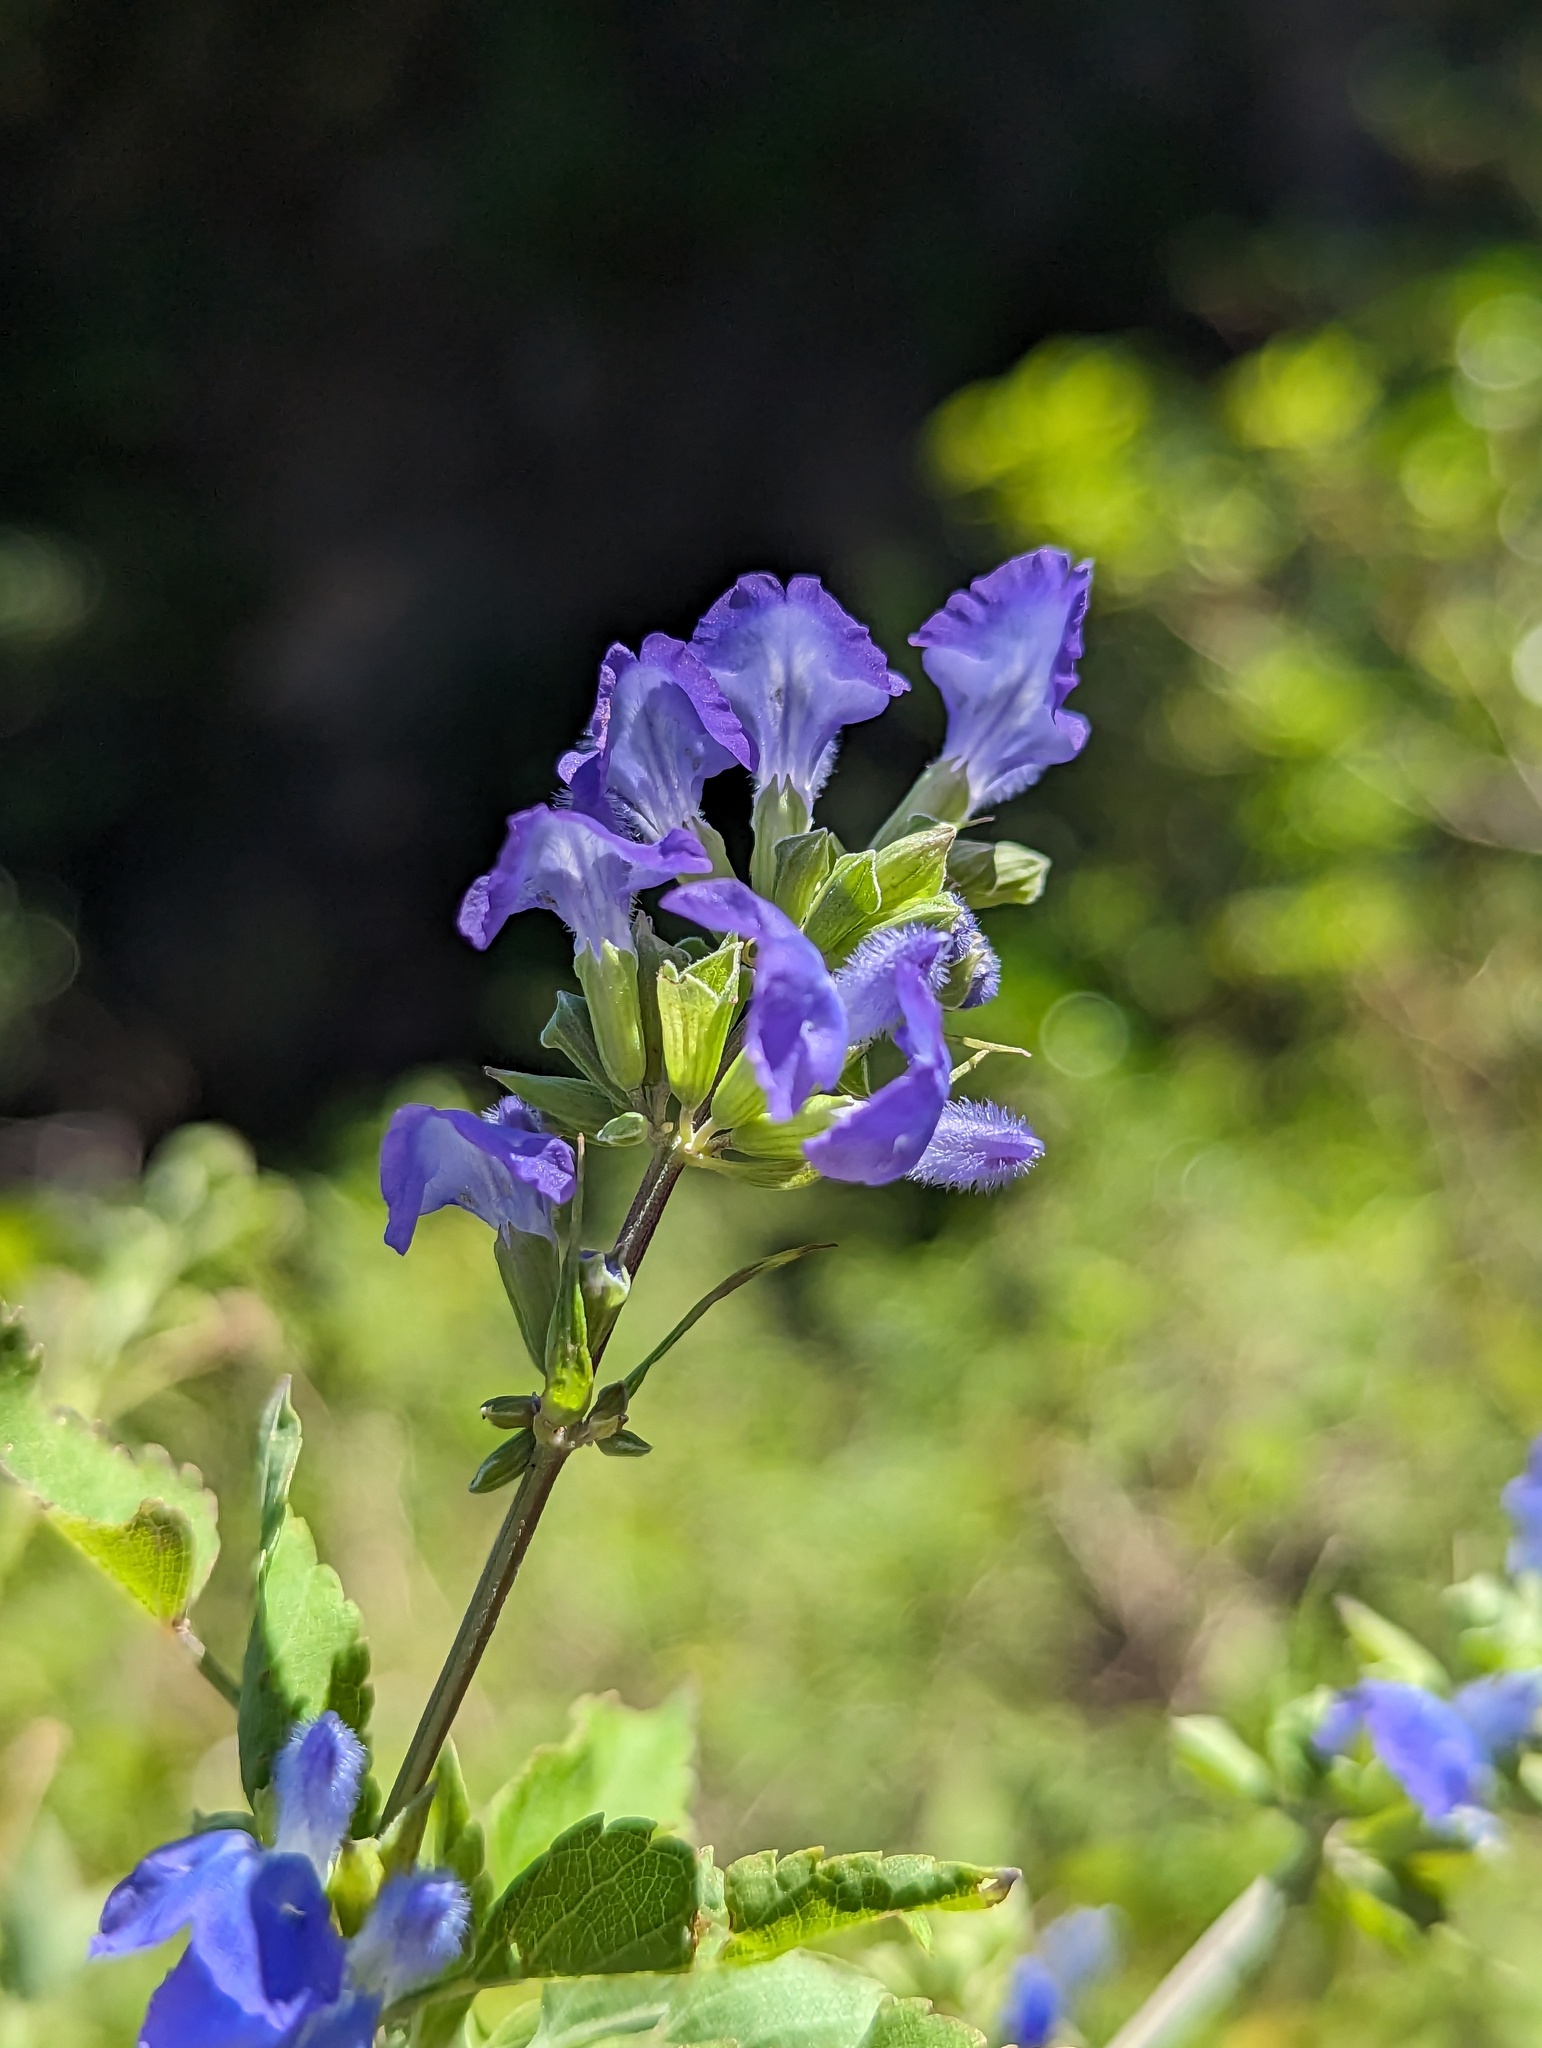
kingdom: Plantae
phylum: Tracheophyta
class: Magnoliopsida
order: Lamiales
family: Lamiaceae
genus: Salvia
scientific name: Salvia similis
